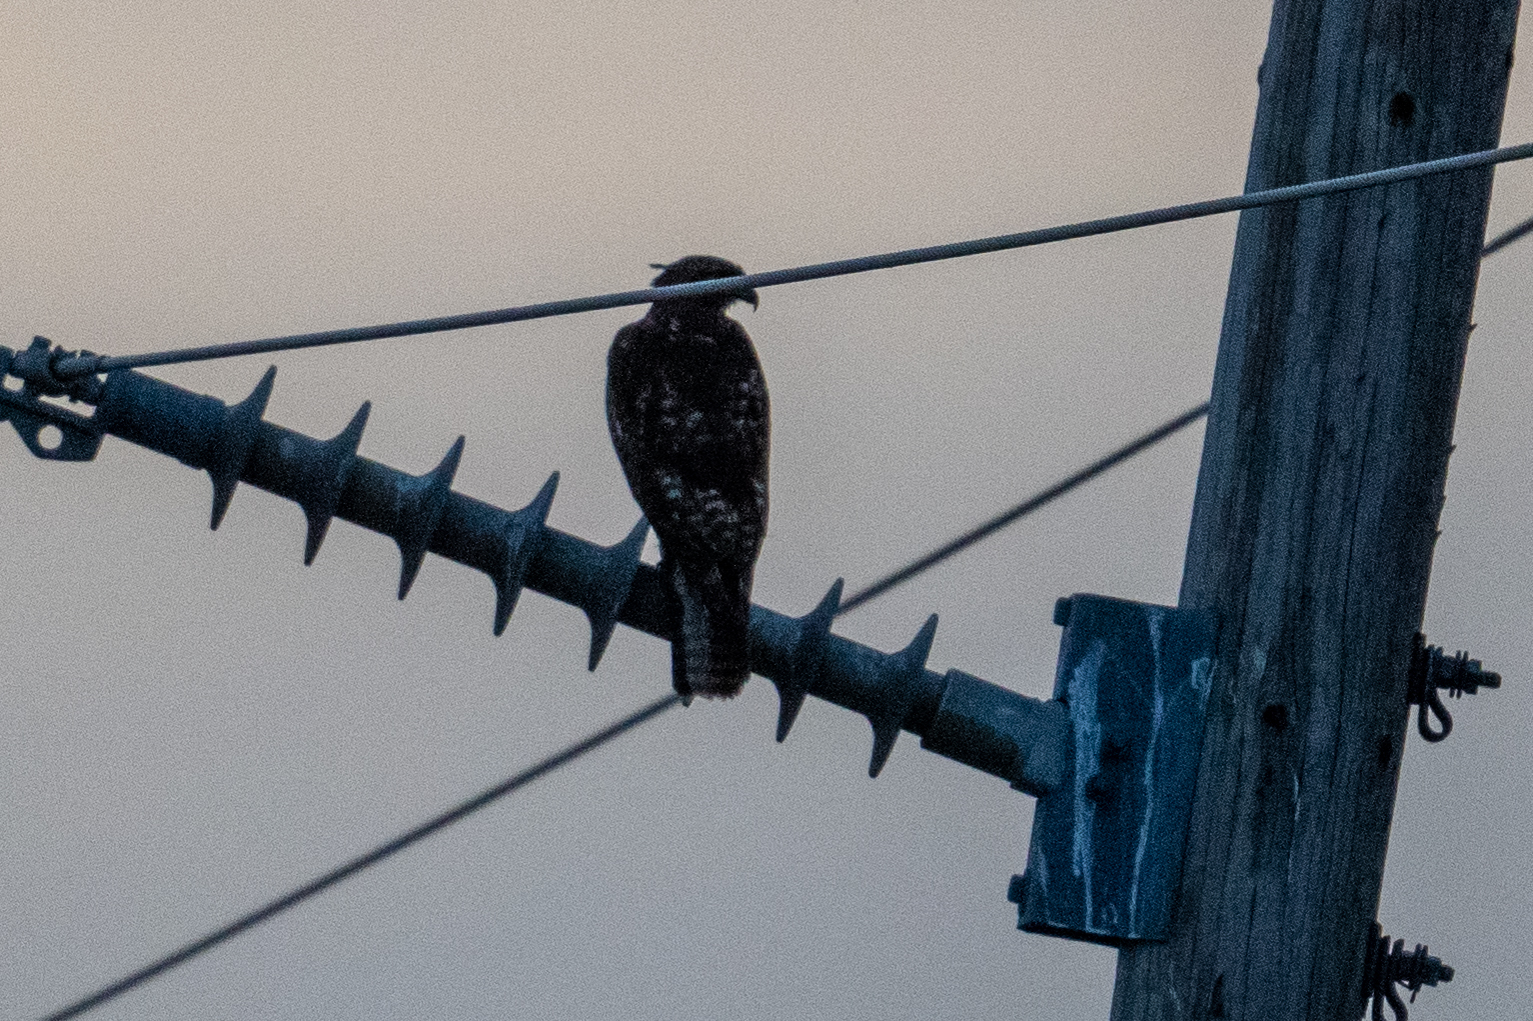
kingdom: Animalia
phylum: Chordata
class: Aves
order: Accipitriformes
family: Accipitridae
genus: Buteo
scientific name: Buteo jamaicensis
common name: Red-tailed hawk
